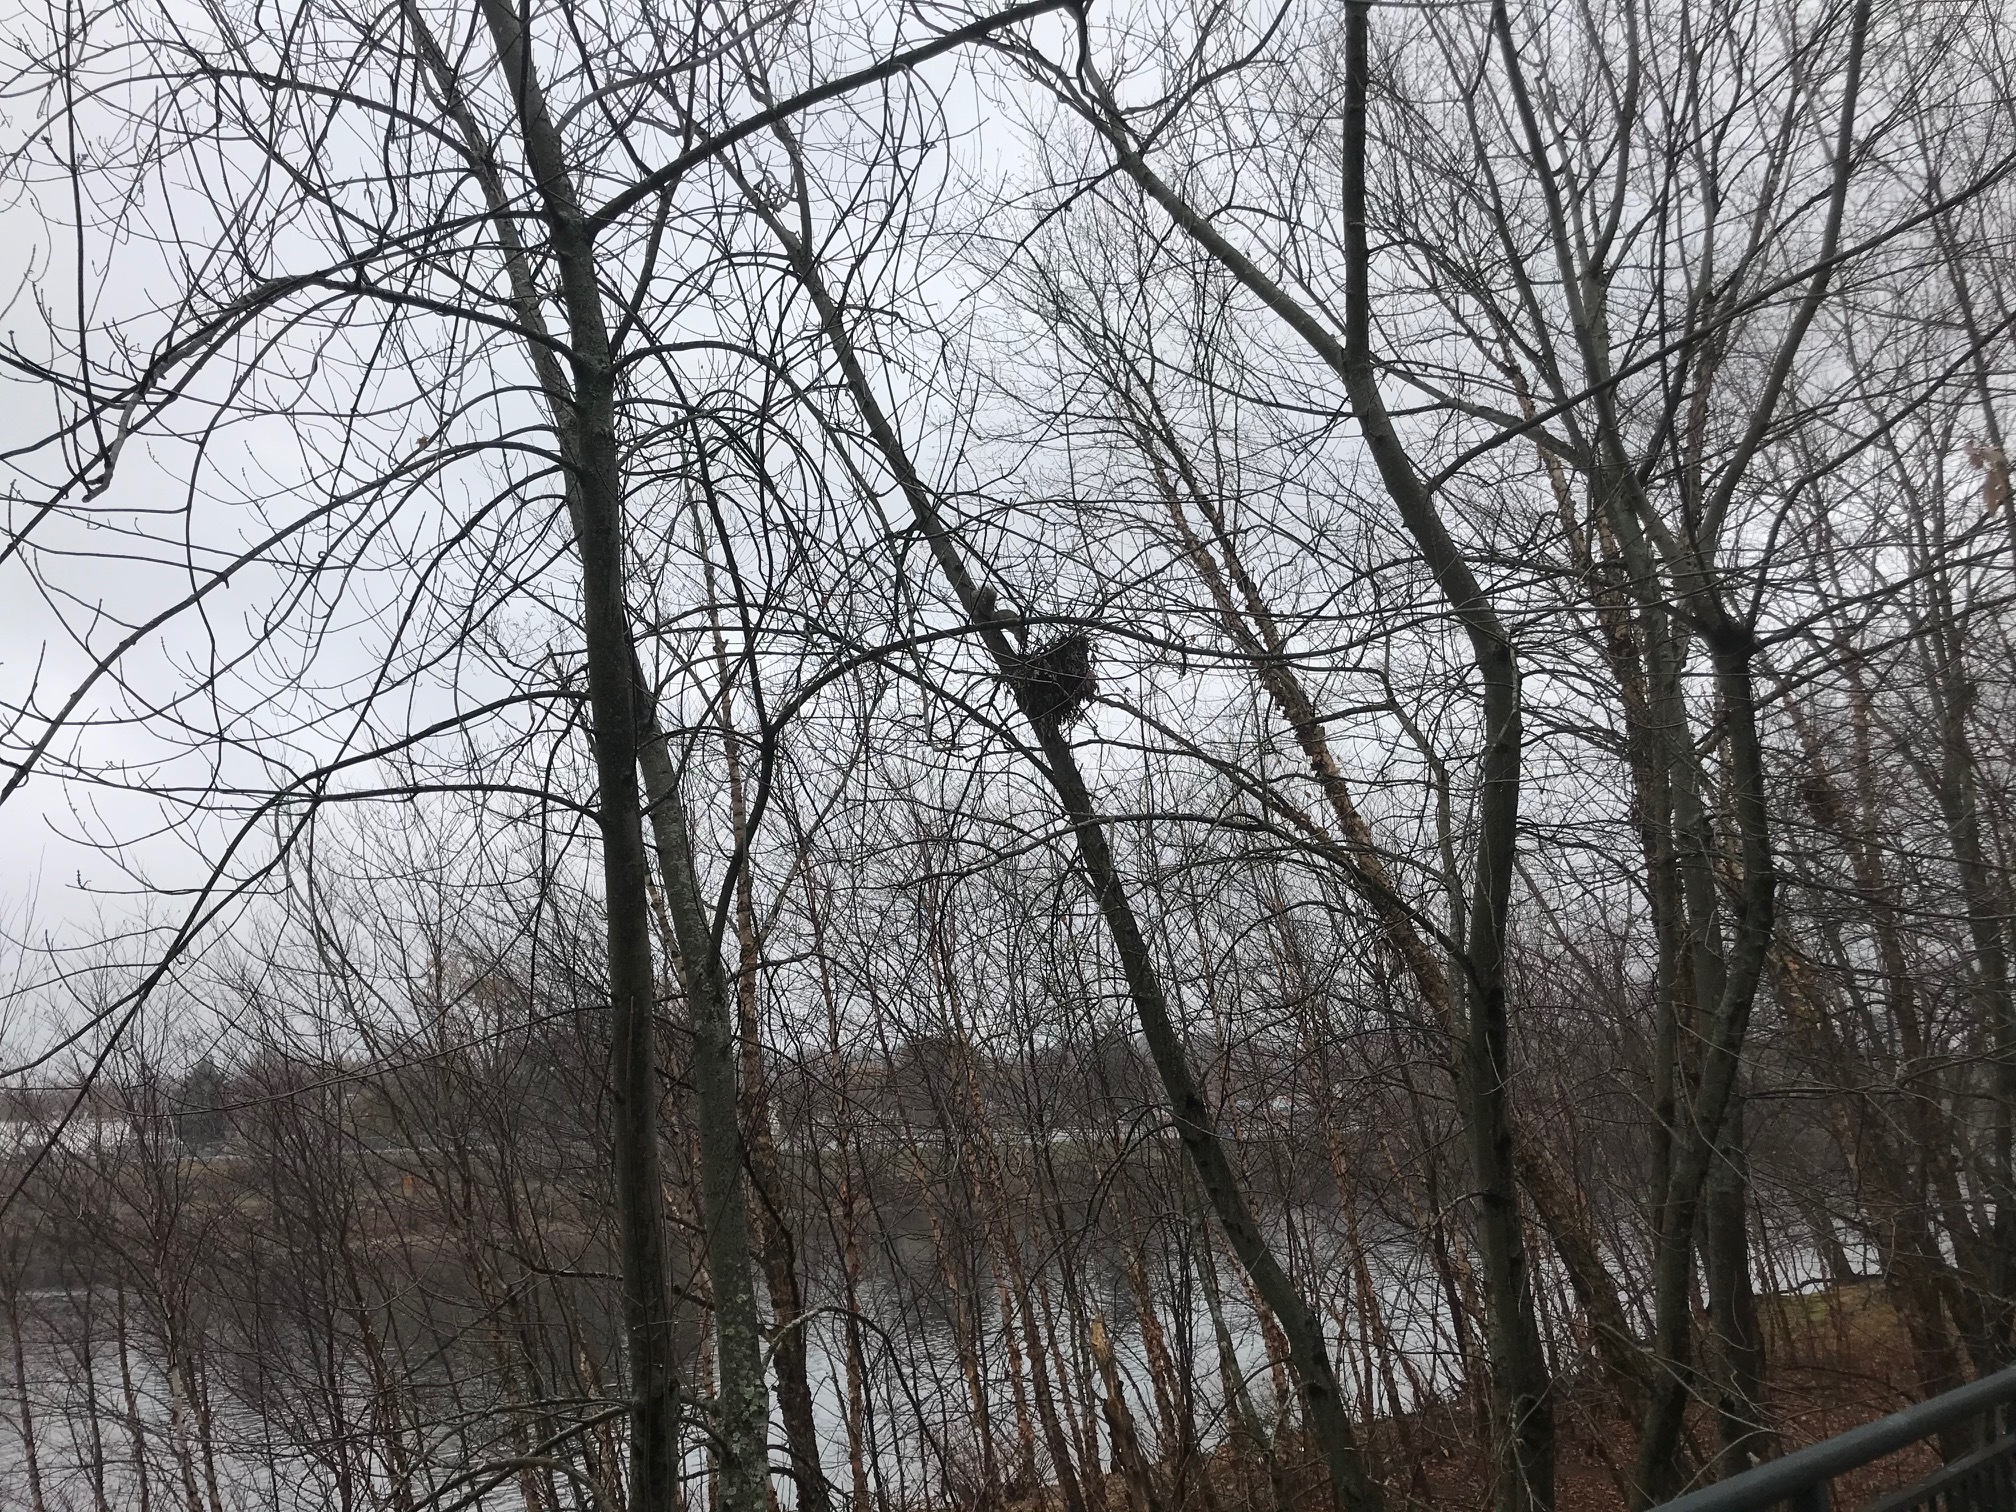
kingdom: Animalia
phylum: Chordata
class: Mammalia
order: Rodentia
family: Sciuridae
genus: Sciurus
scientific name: Sciurus carolinensis
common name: Eastern gray squirrel
